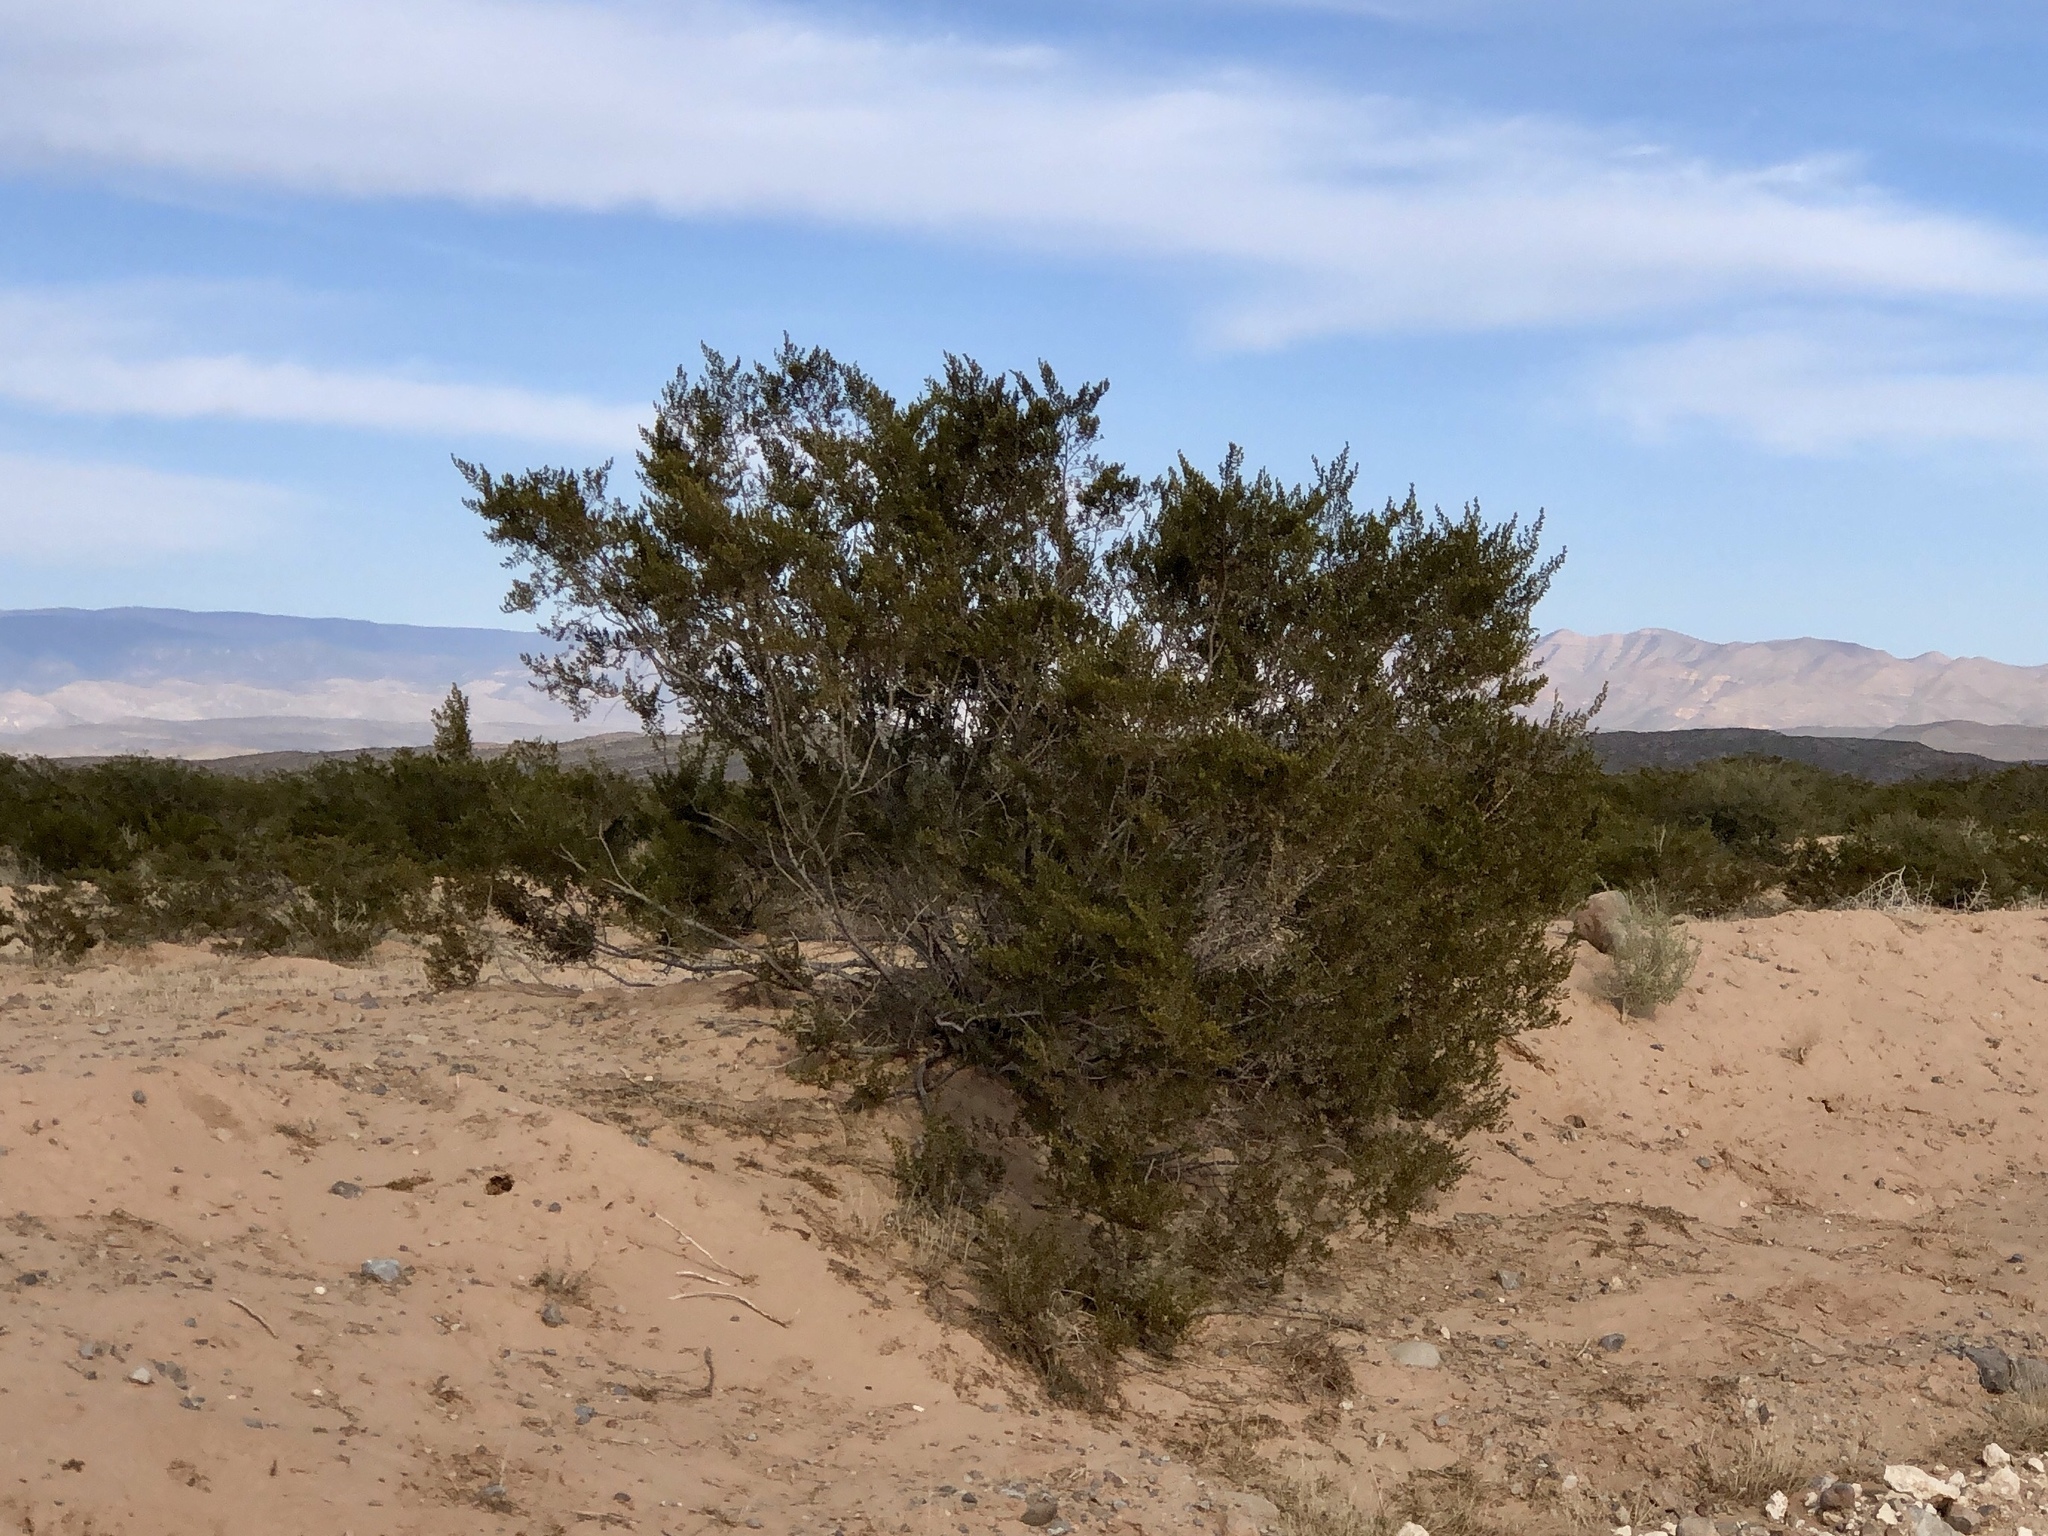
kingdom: Plantae
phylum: Tracheophyta
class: Magnoliopsida
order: Zygophyllales
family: Zygophyllaceae
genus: Larrea
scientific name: Larrea tridentata
